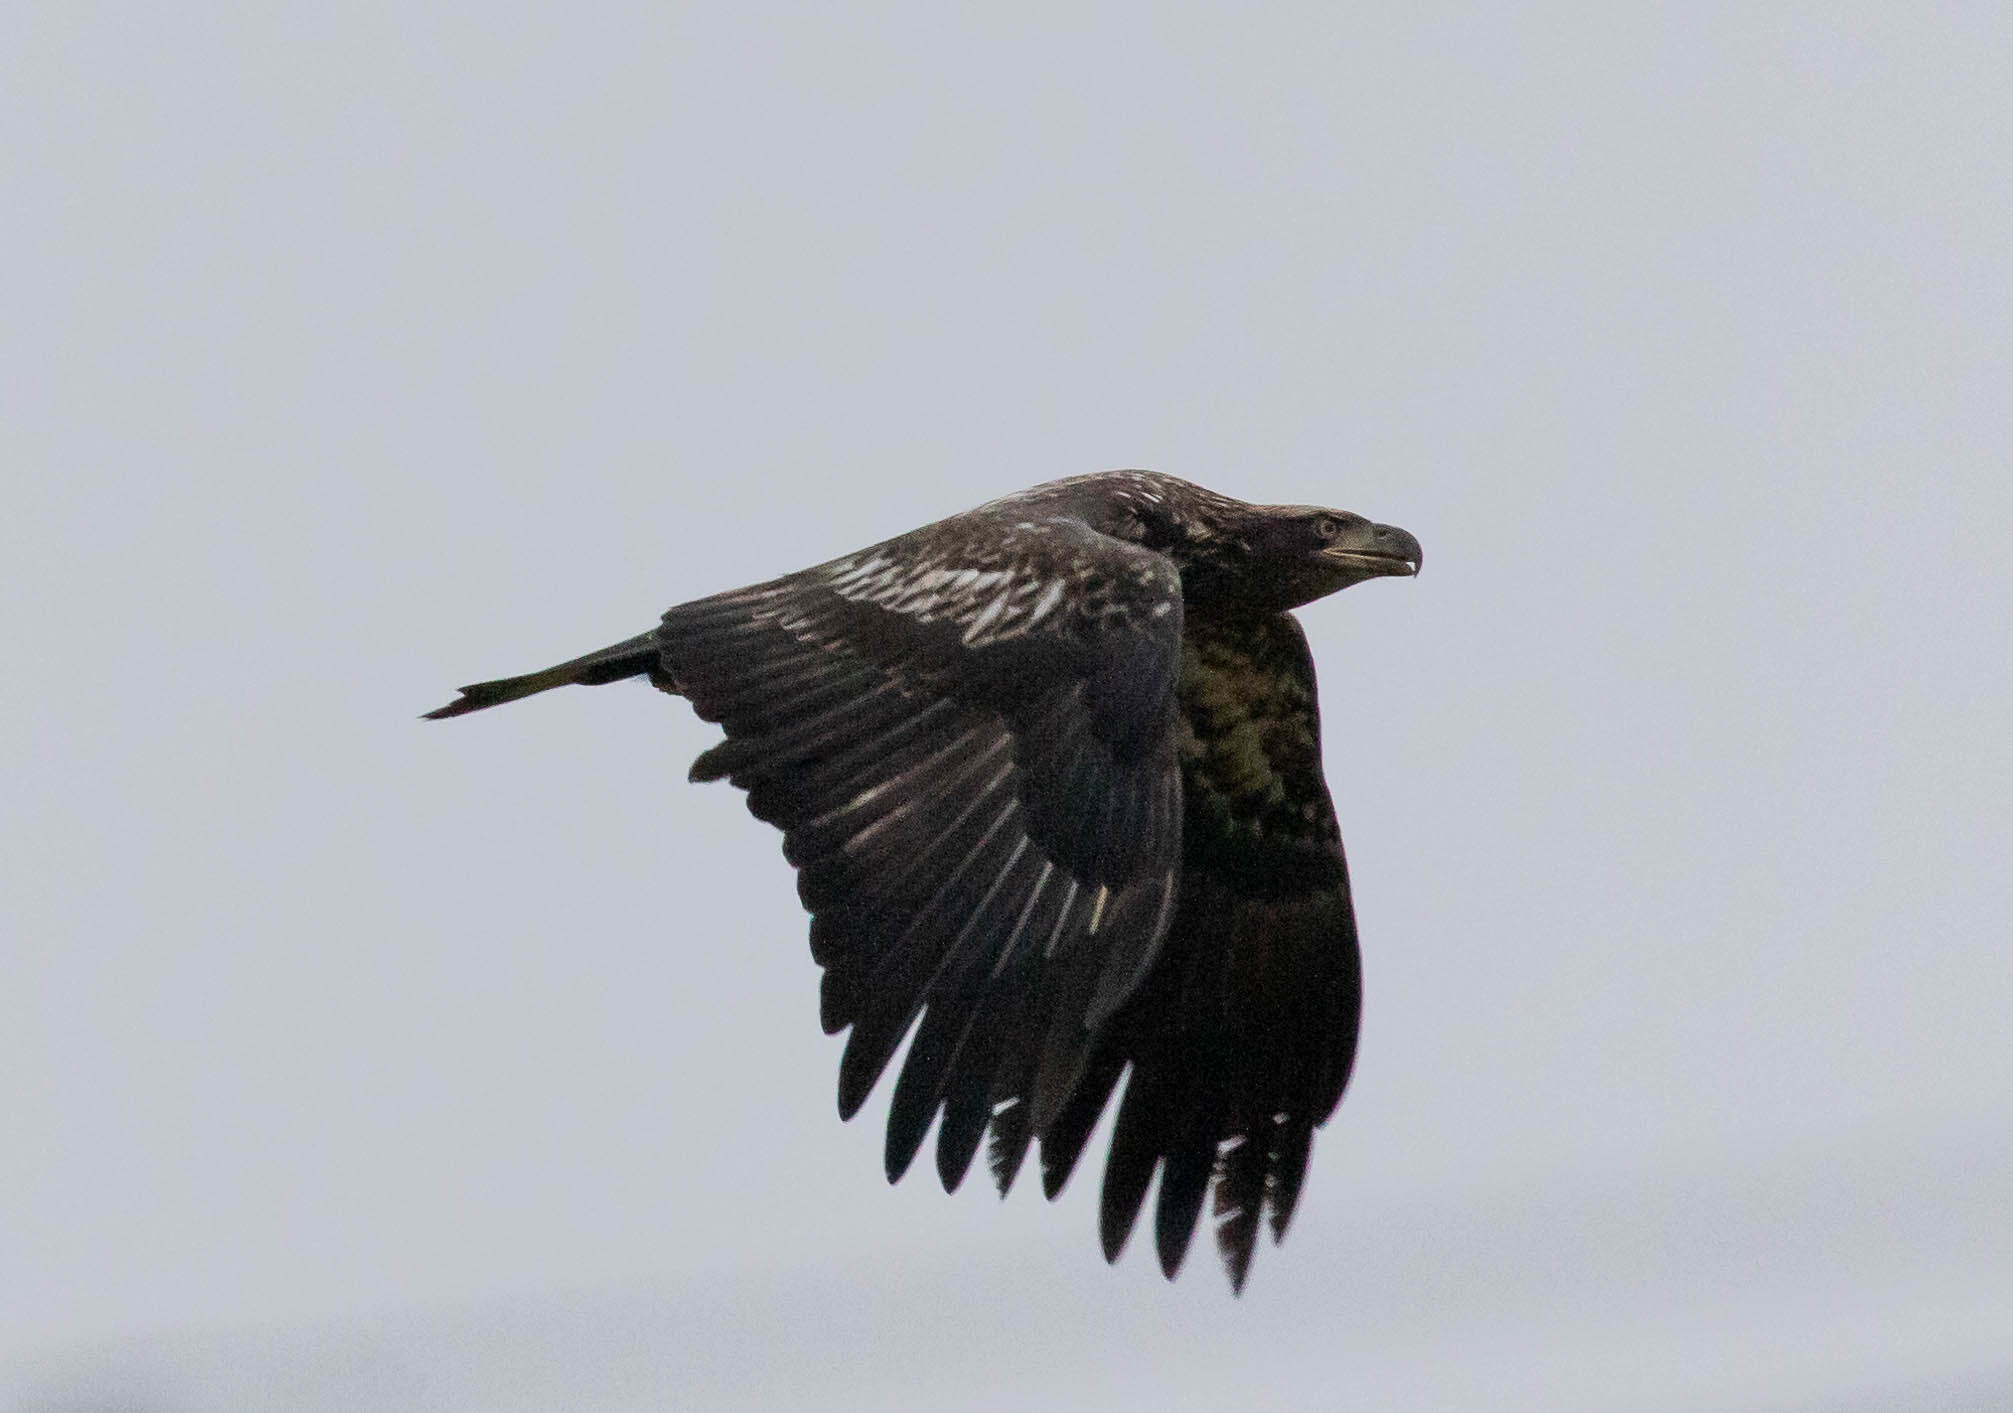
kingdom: Animalia
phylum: Chordata
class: Aves
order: Accipitriformes
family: Accipitridae
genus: Haliaeetus
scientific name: Haliaeetus leucocephalus
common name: Bald eagle
